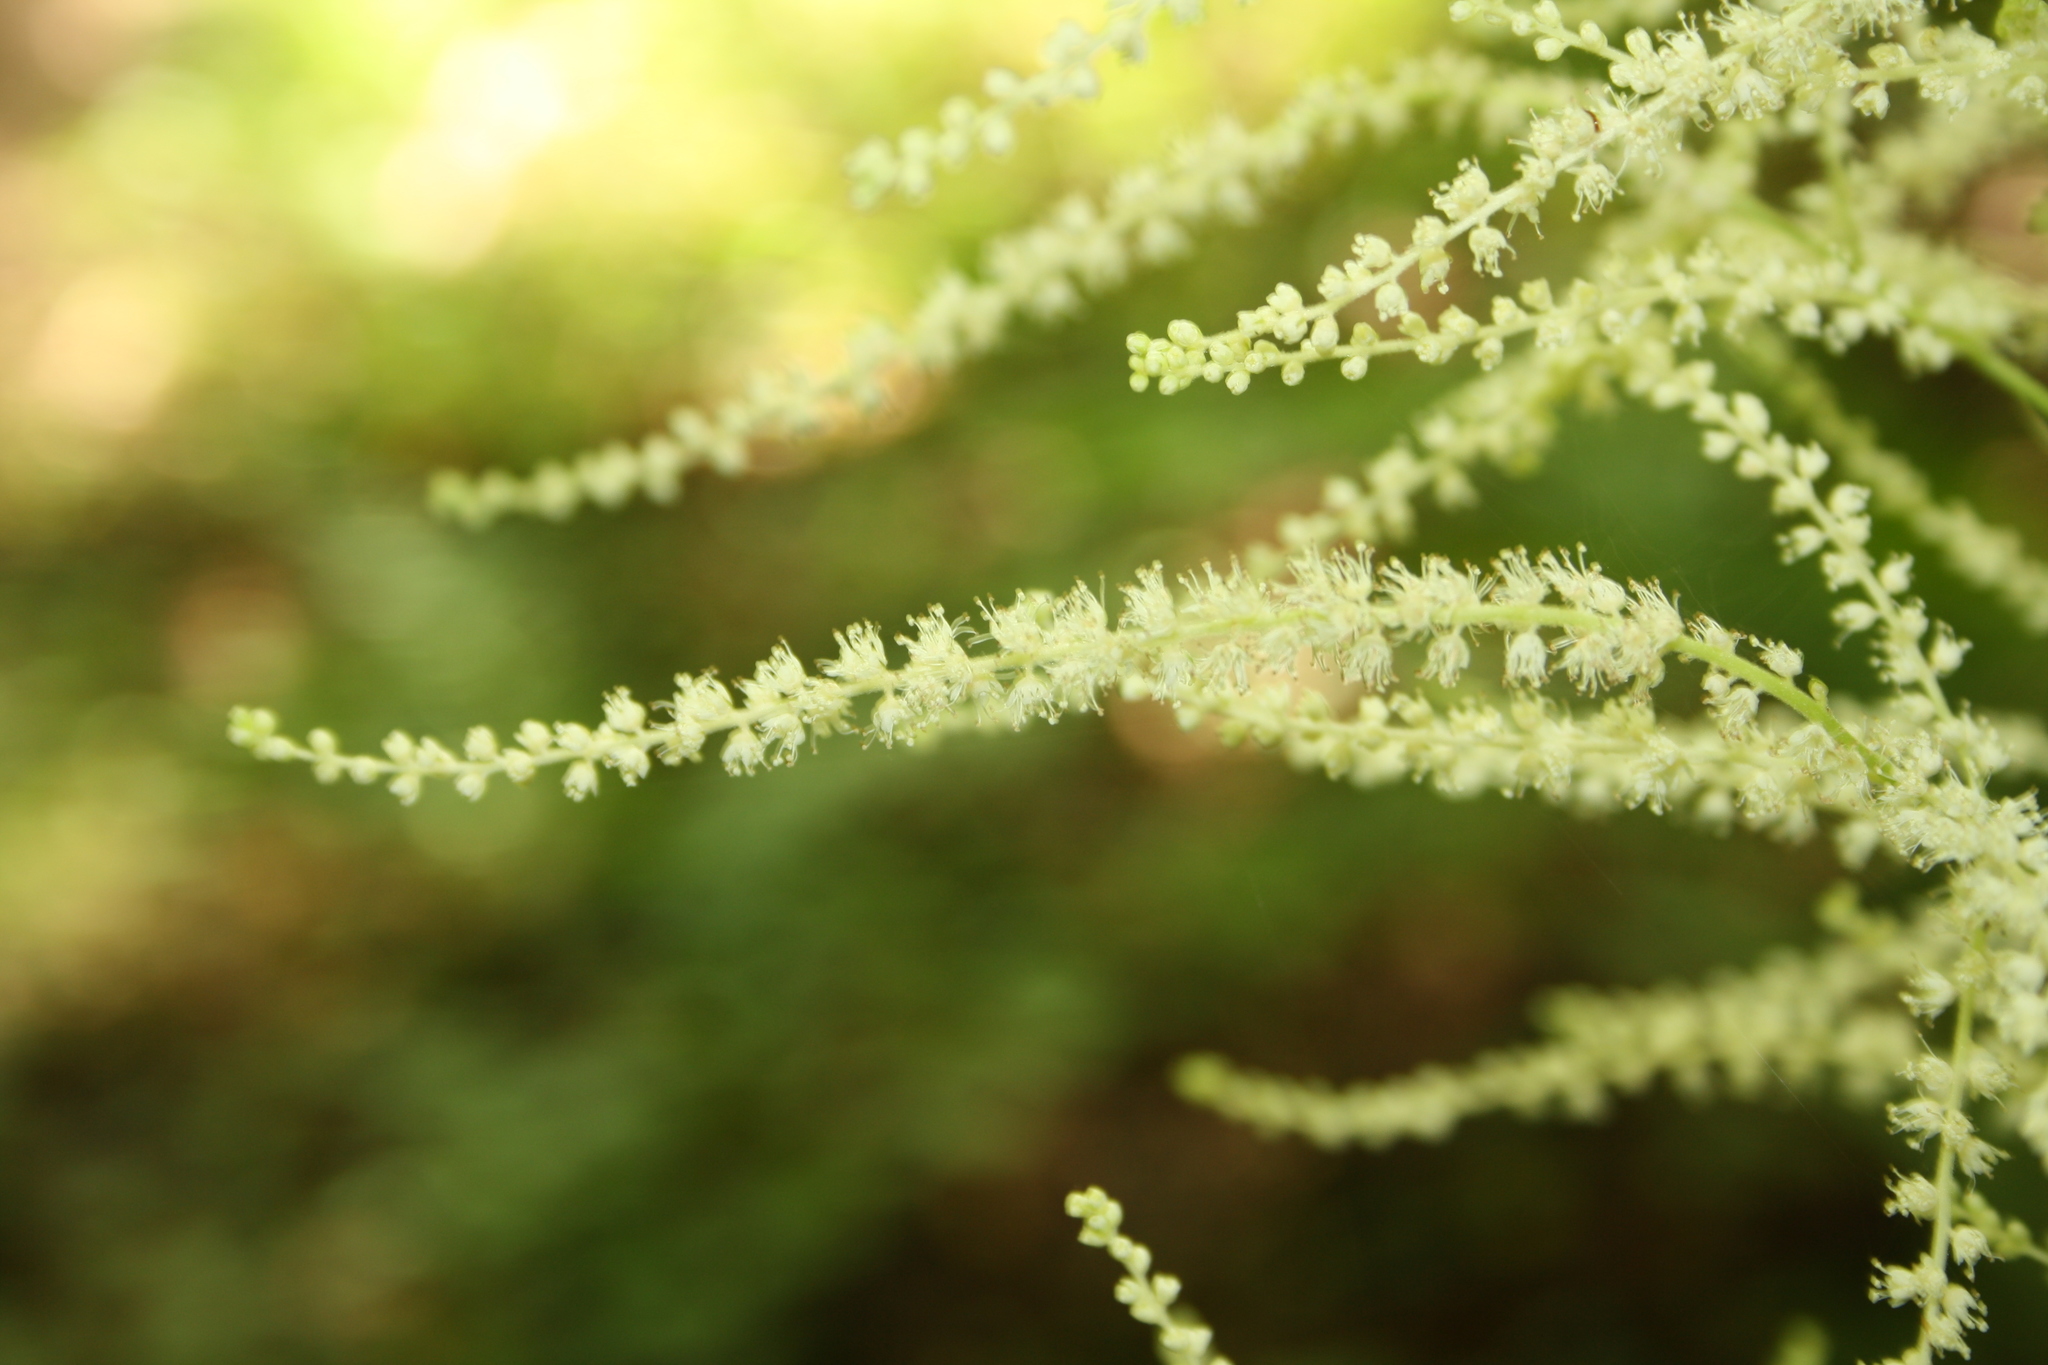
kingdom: Plantae
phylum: Tracheophyta
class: Magnoliopsida
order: Rosales
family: Rosaceae
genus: Aruncus
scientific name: Aruncus dioicus
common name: Buck's-beard
